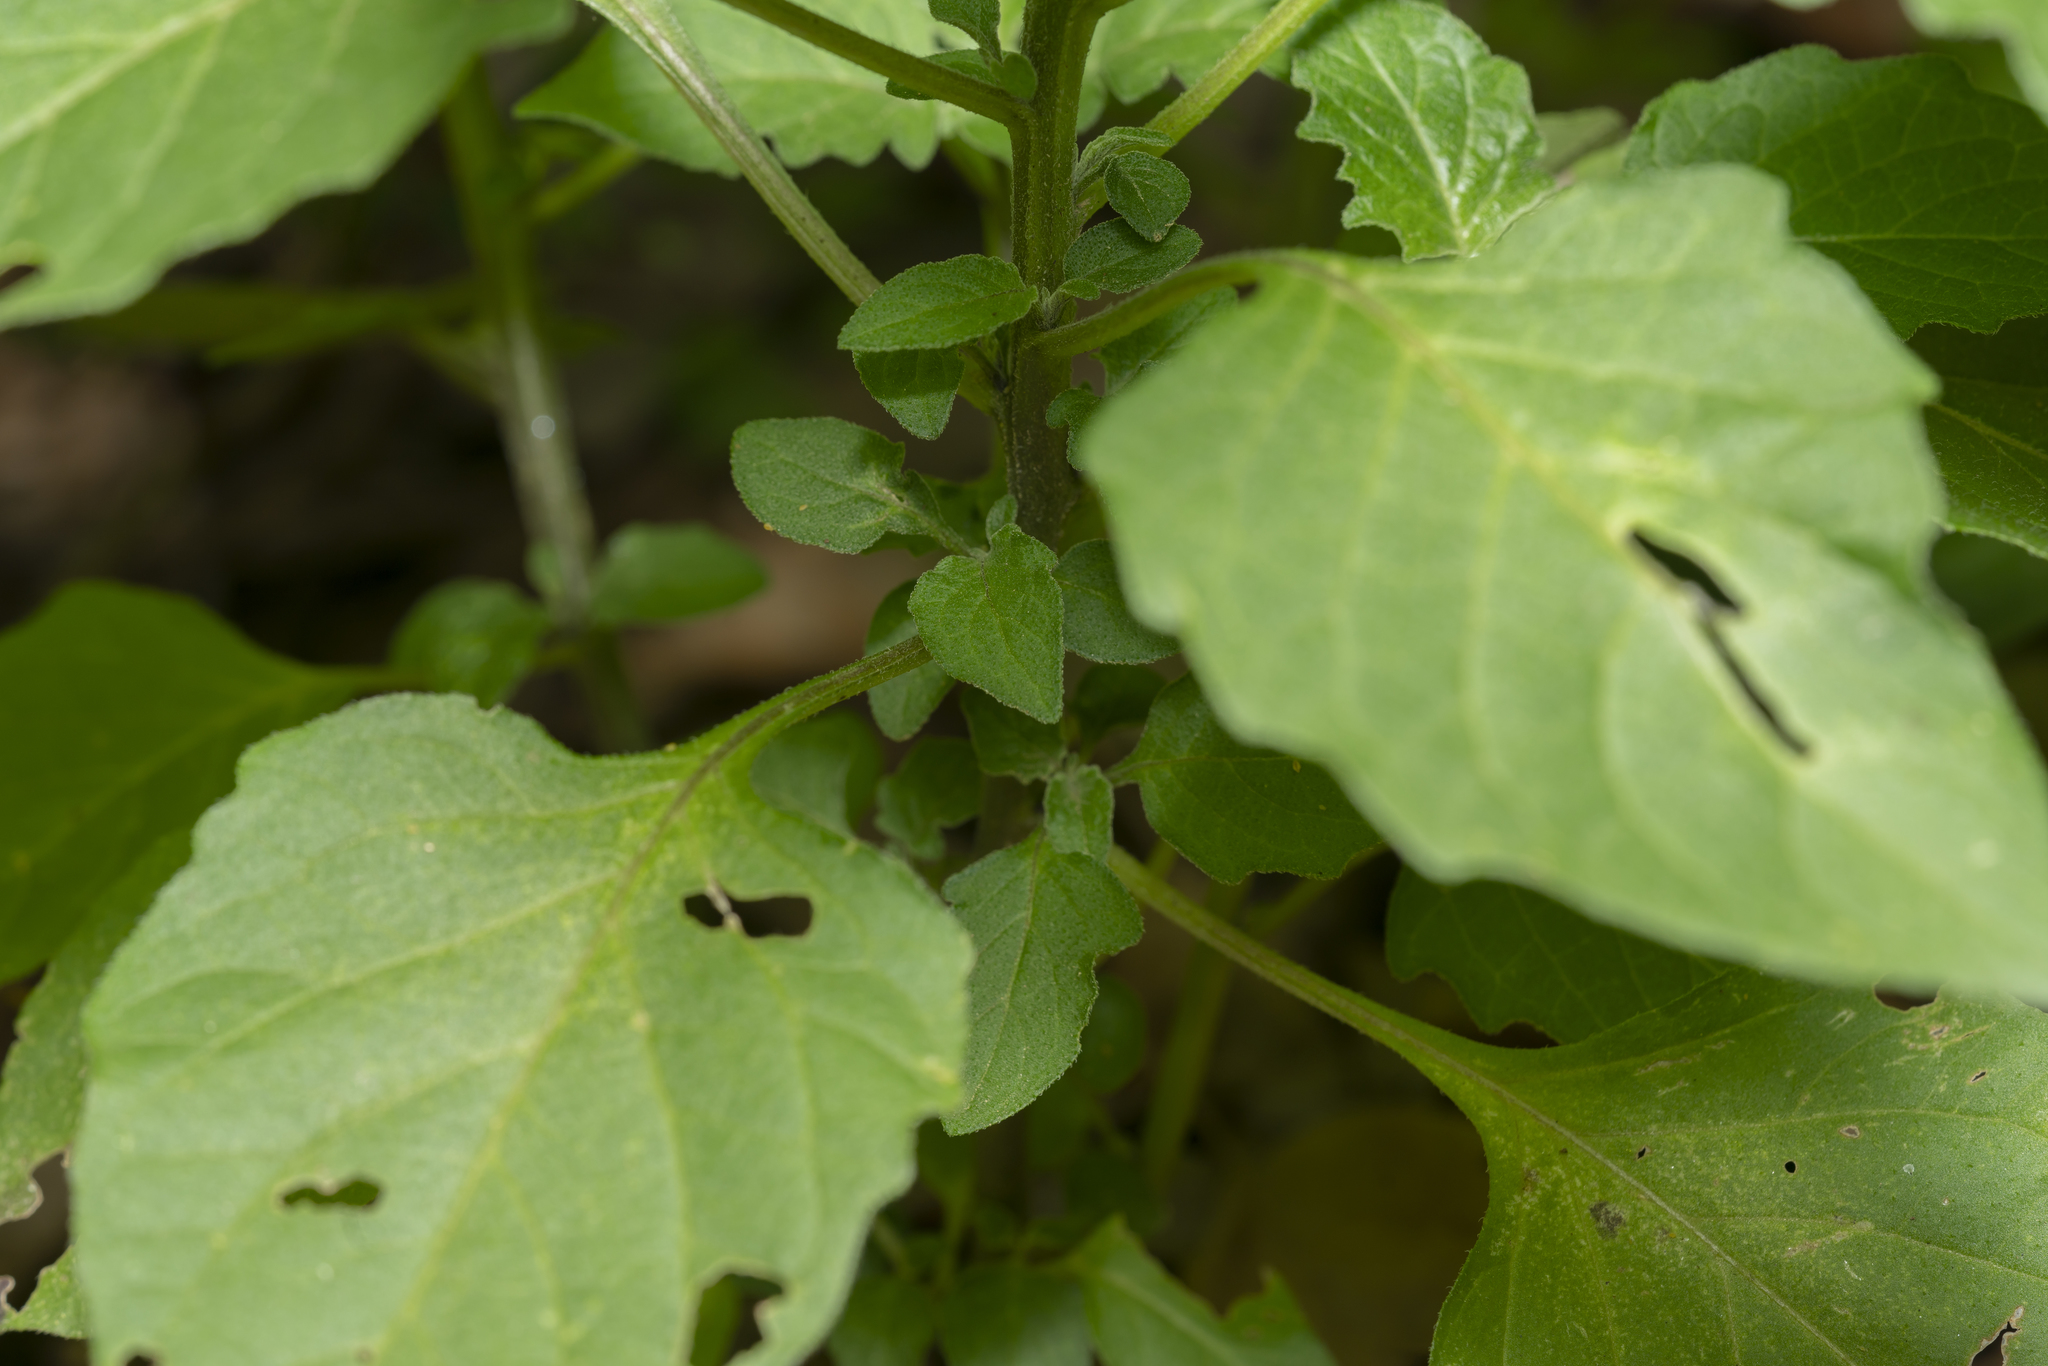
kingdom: Plantae
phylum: Tracheophyta
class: Magnoliopsida
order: Solanales
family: Solanaceae
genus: Solanum
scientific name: Solanum
